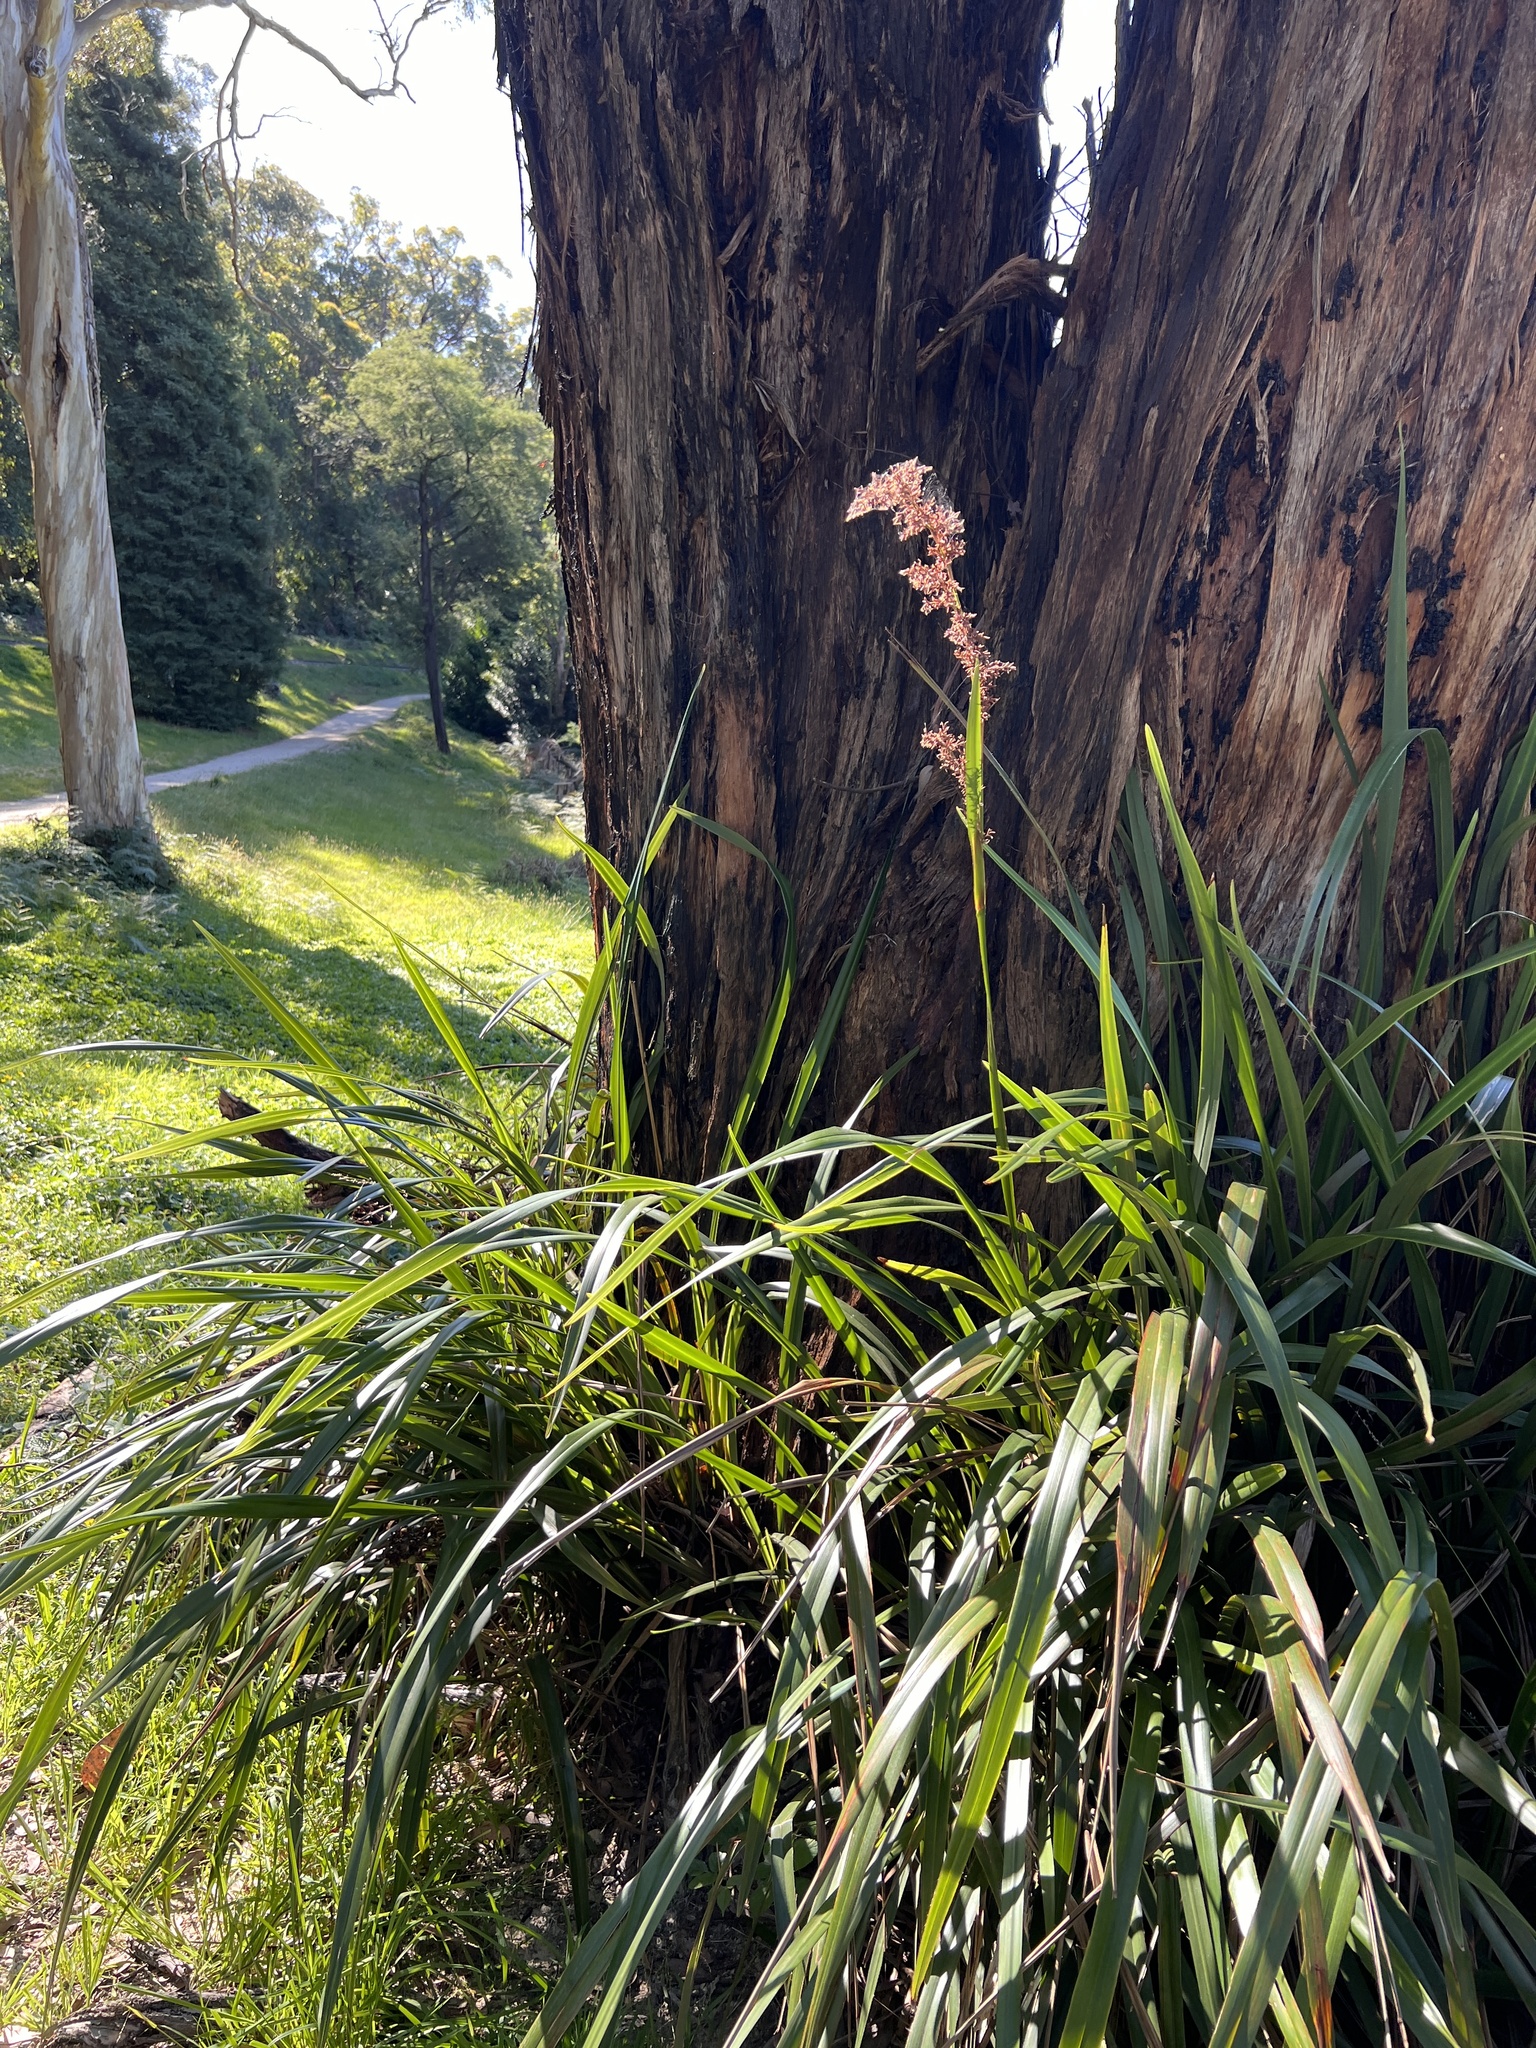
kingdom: Plantae
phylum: Tracheophyta
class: Liliopsida
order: Poales
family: Cyperaceae
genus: Lepidosperma
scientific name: Lepidosperma elatius
